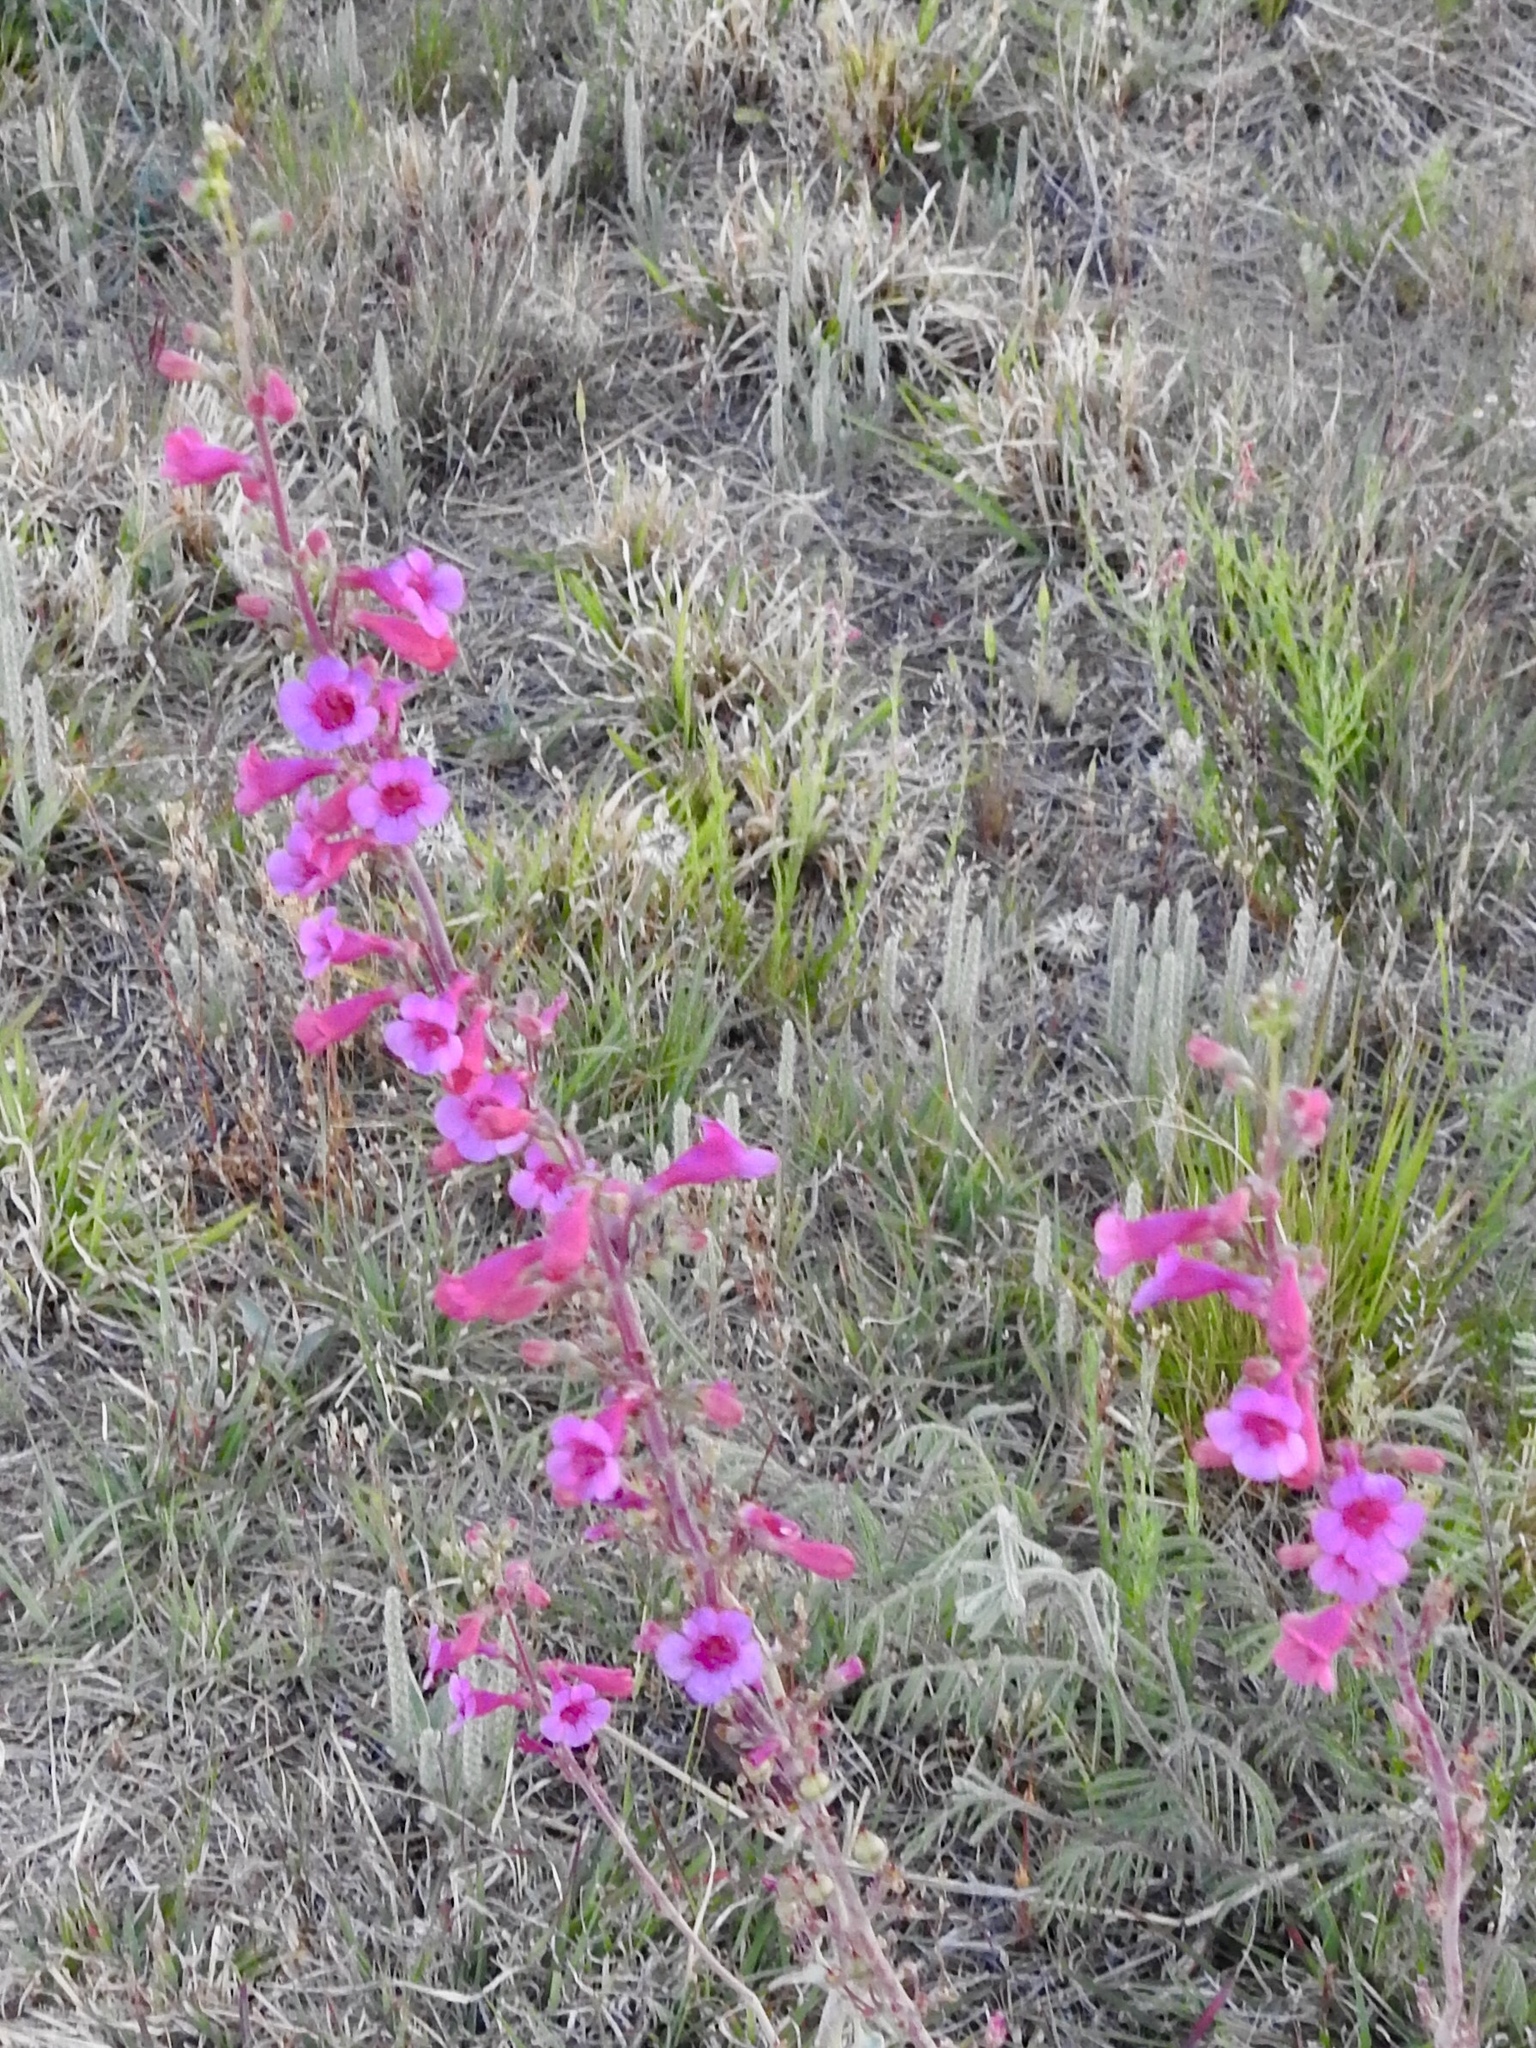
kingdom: Plantae
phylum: Tracheophyta
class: Magnoliopsida
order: Lamiales
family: Plantaginaceae
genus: Penstemon
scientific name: Penstemon parryi
